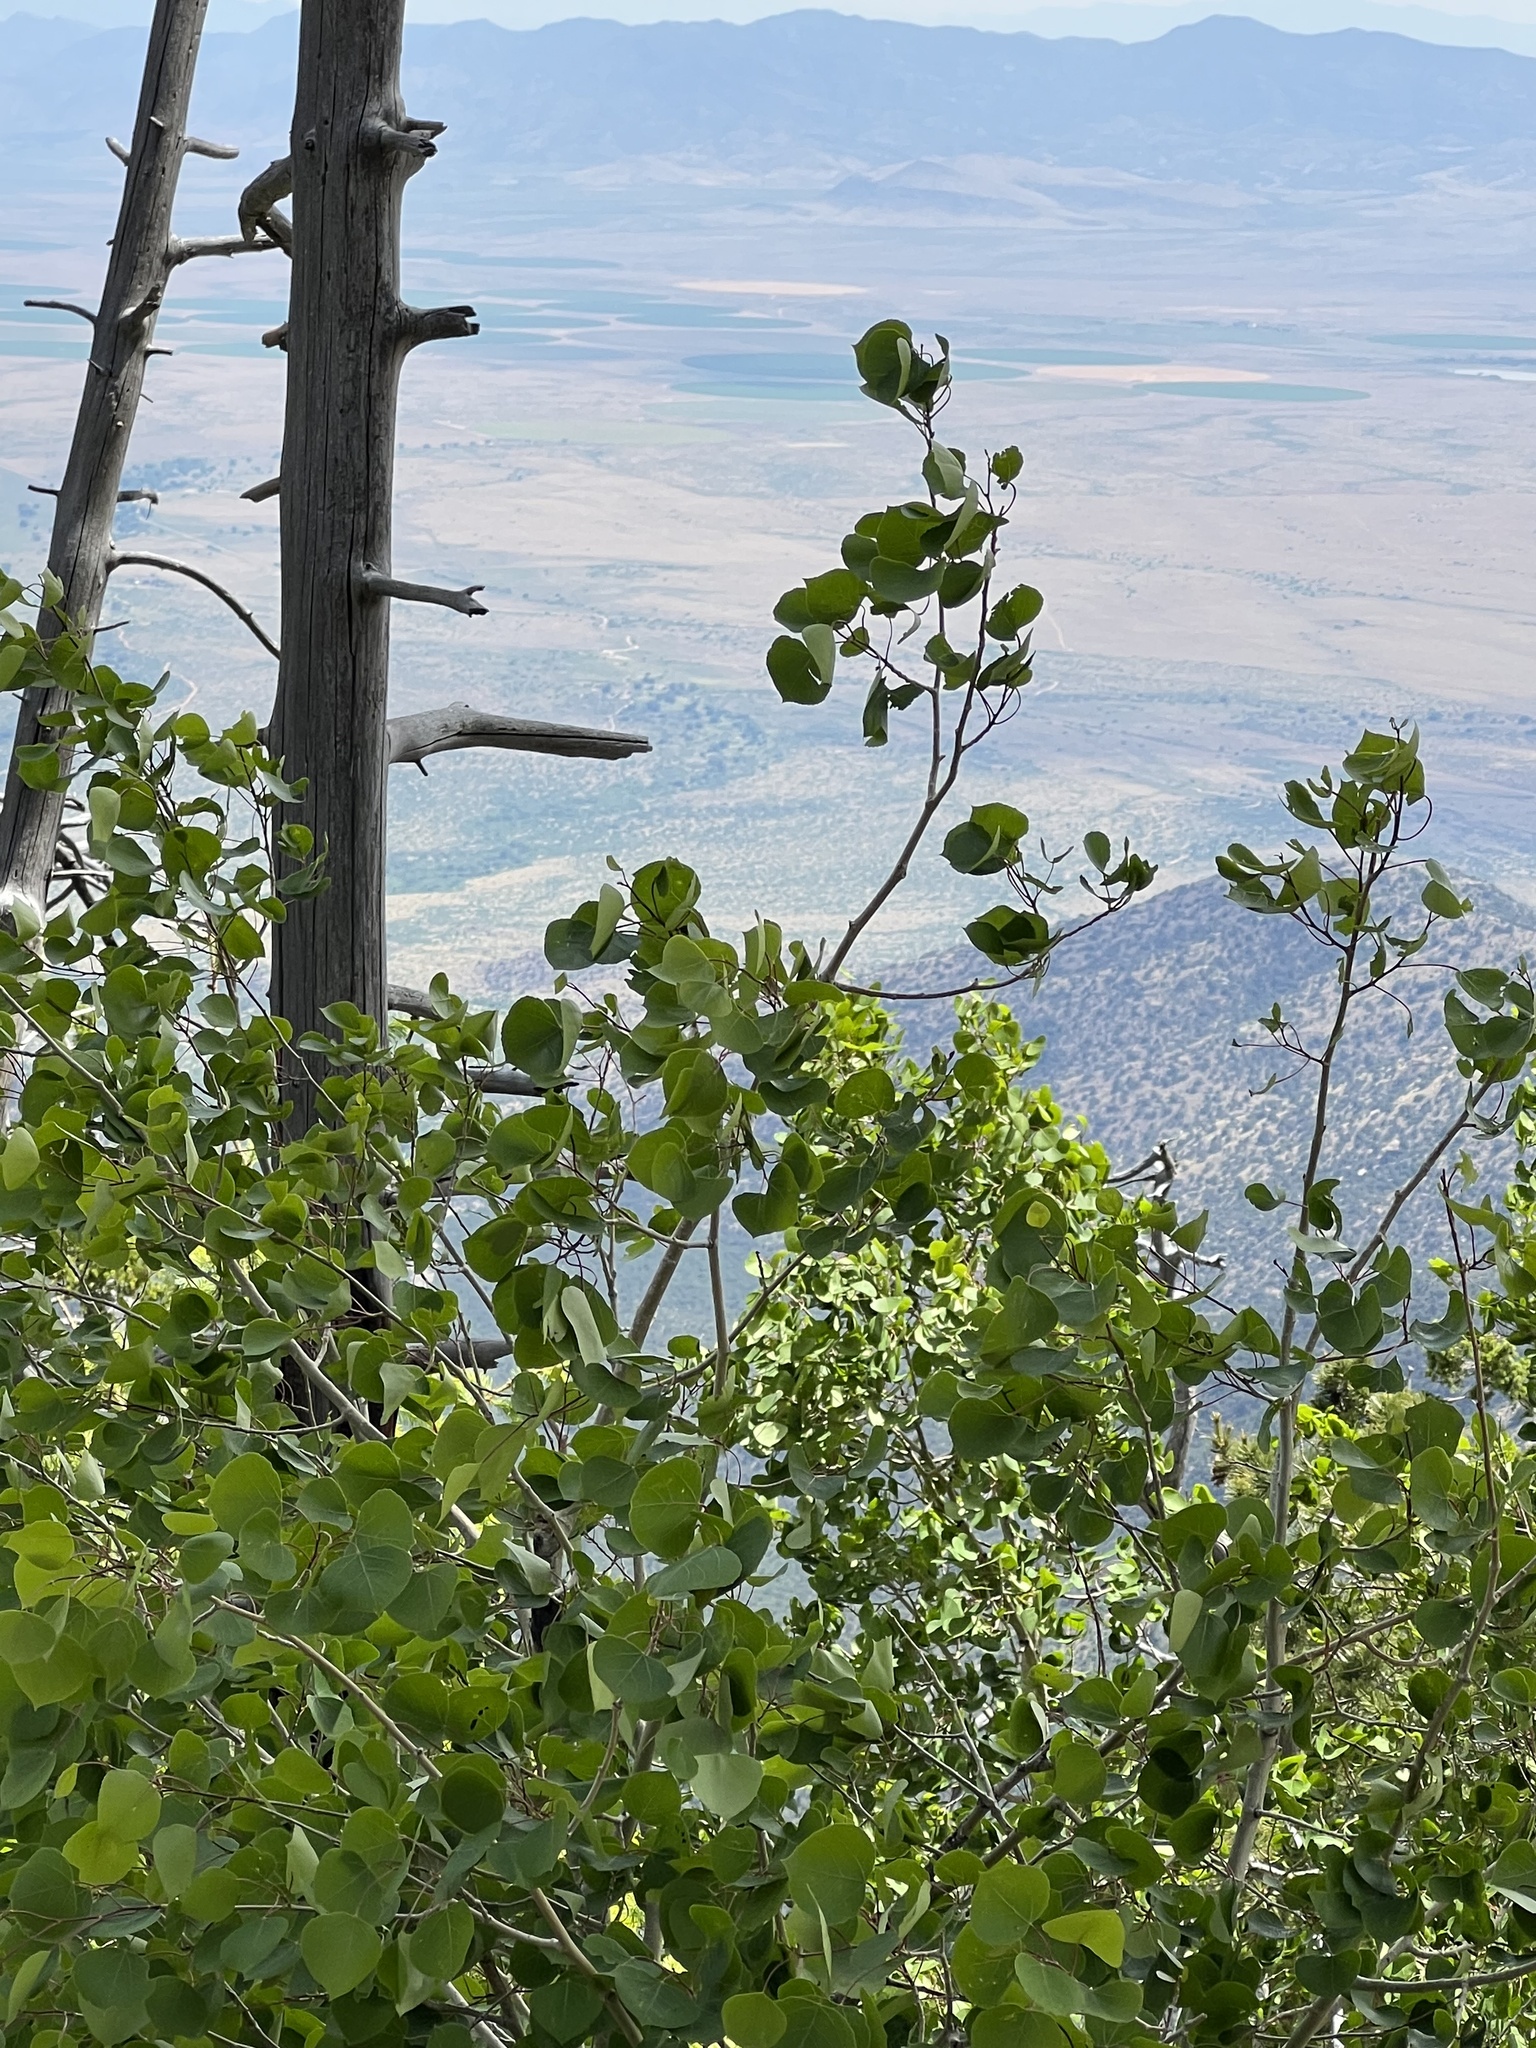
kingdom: Plantae
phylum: Tracheophyta
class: Magnoliopsida
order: Malpighiales
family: Salicaceae
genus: Populus
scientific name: Populus tremuloides
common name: Quaking aspen
